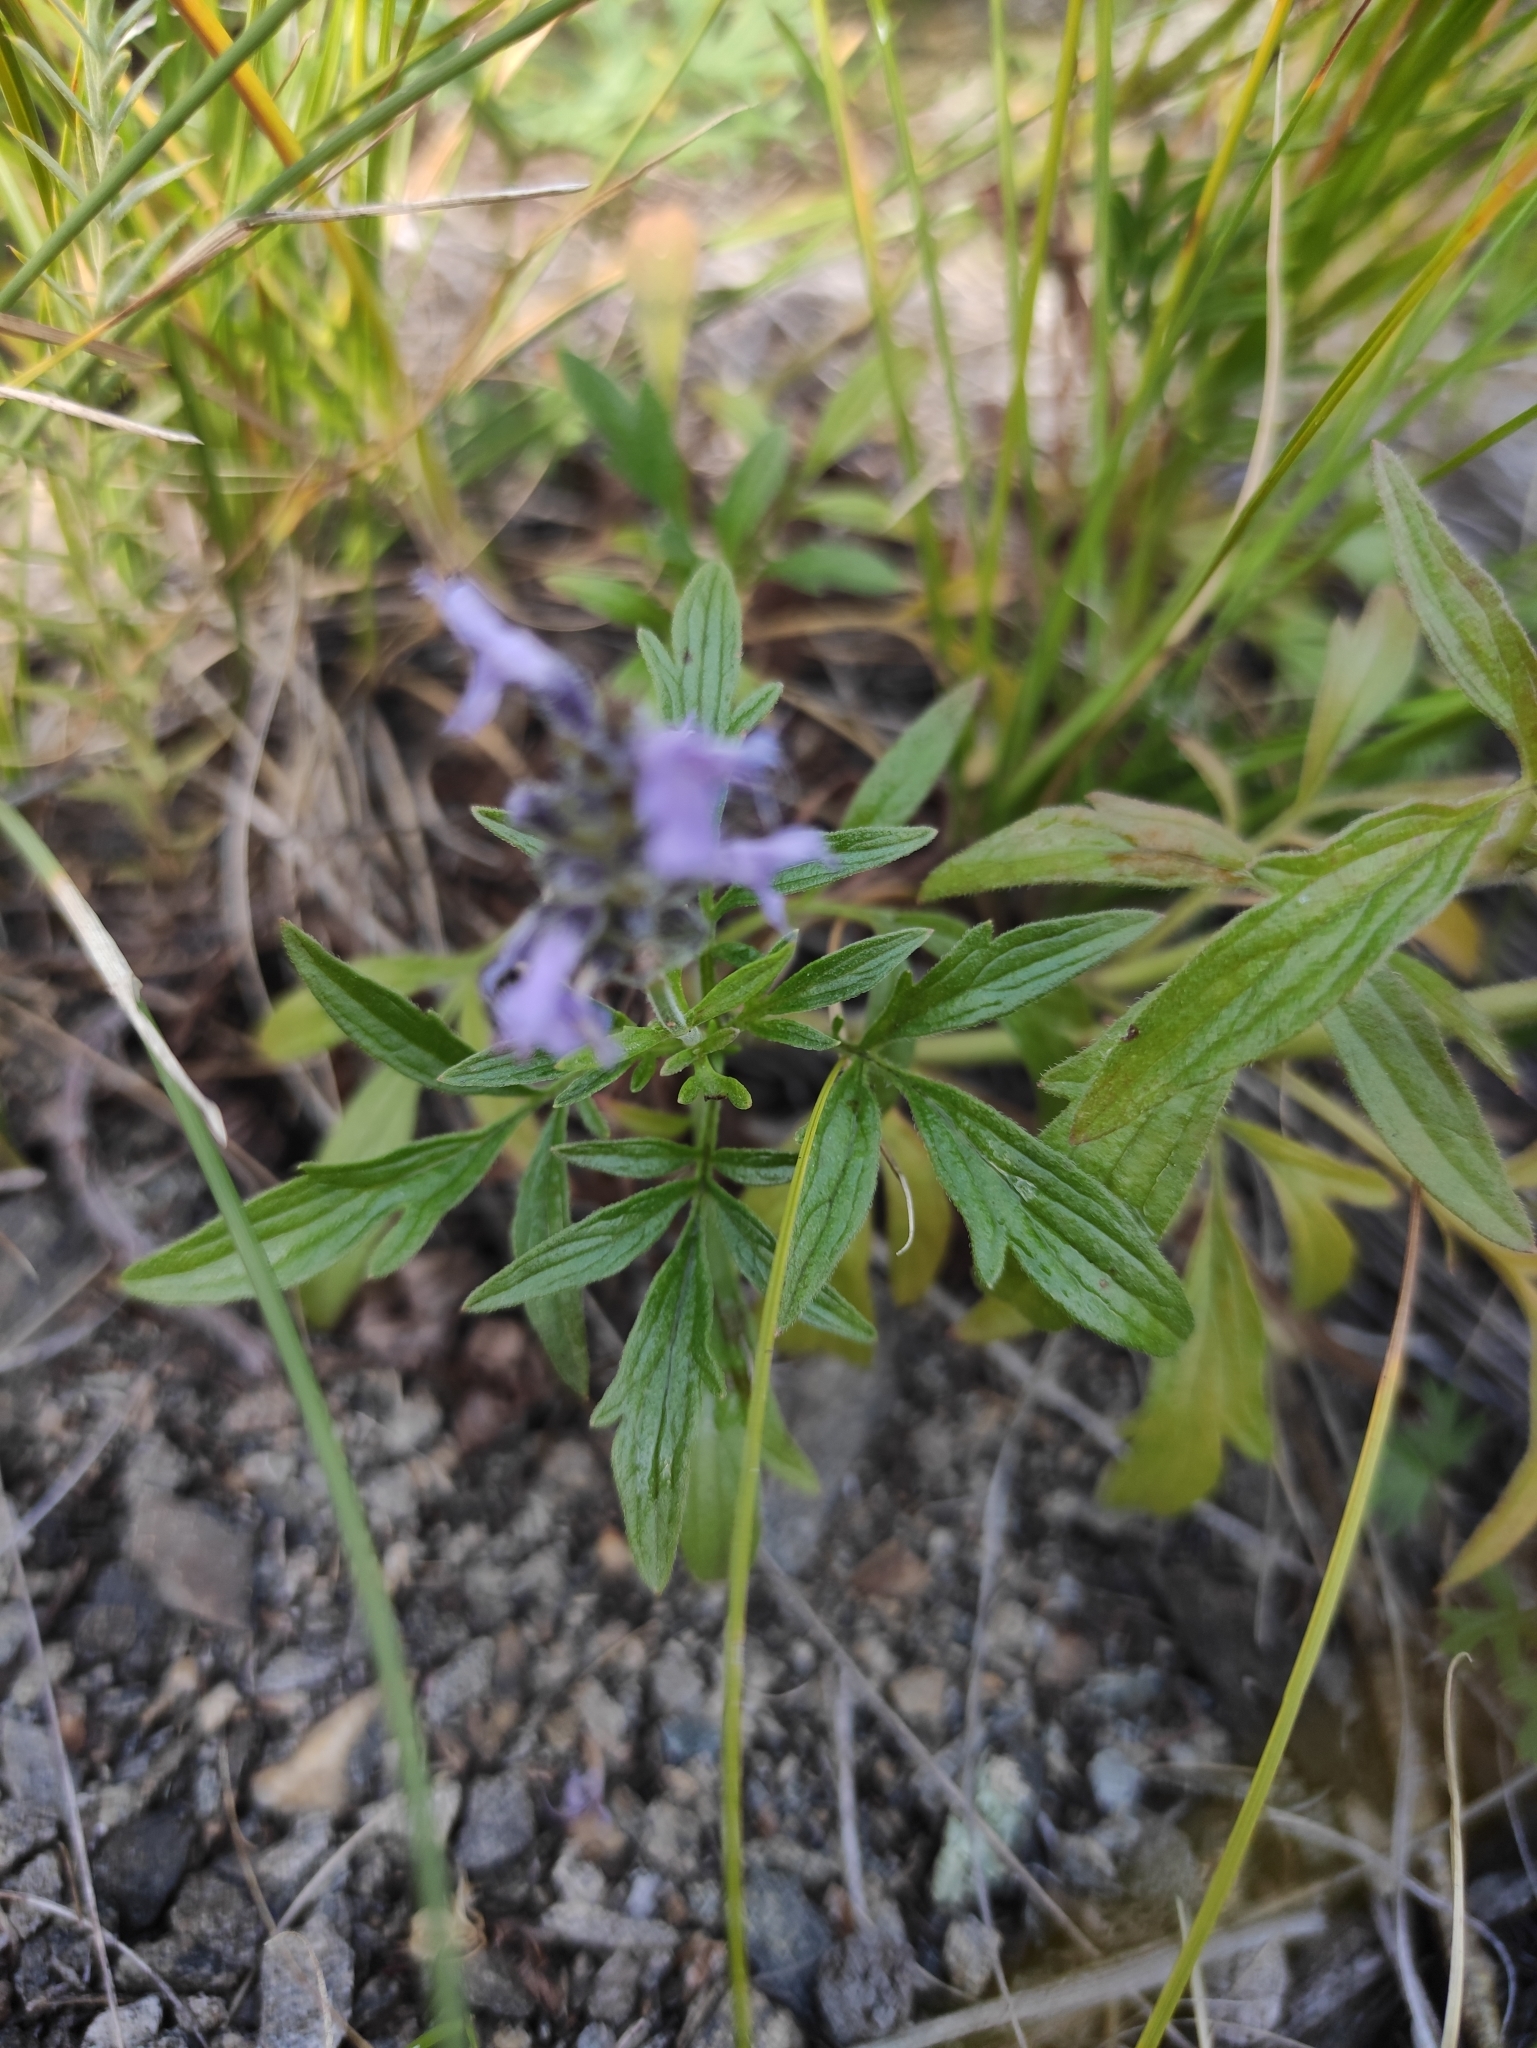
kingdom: Plantae
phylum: Tracheophyta
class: Magnoliopsida
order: Lamiales
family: Lamiaceae
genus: Nepeta
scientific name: Nepeta multifida
